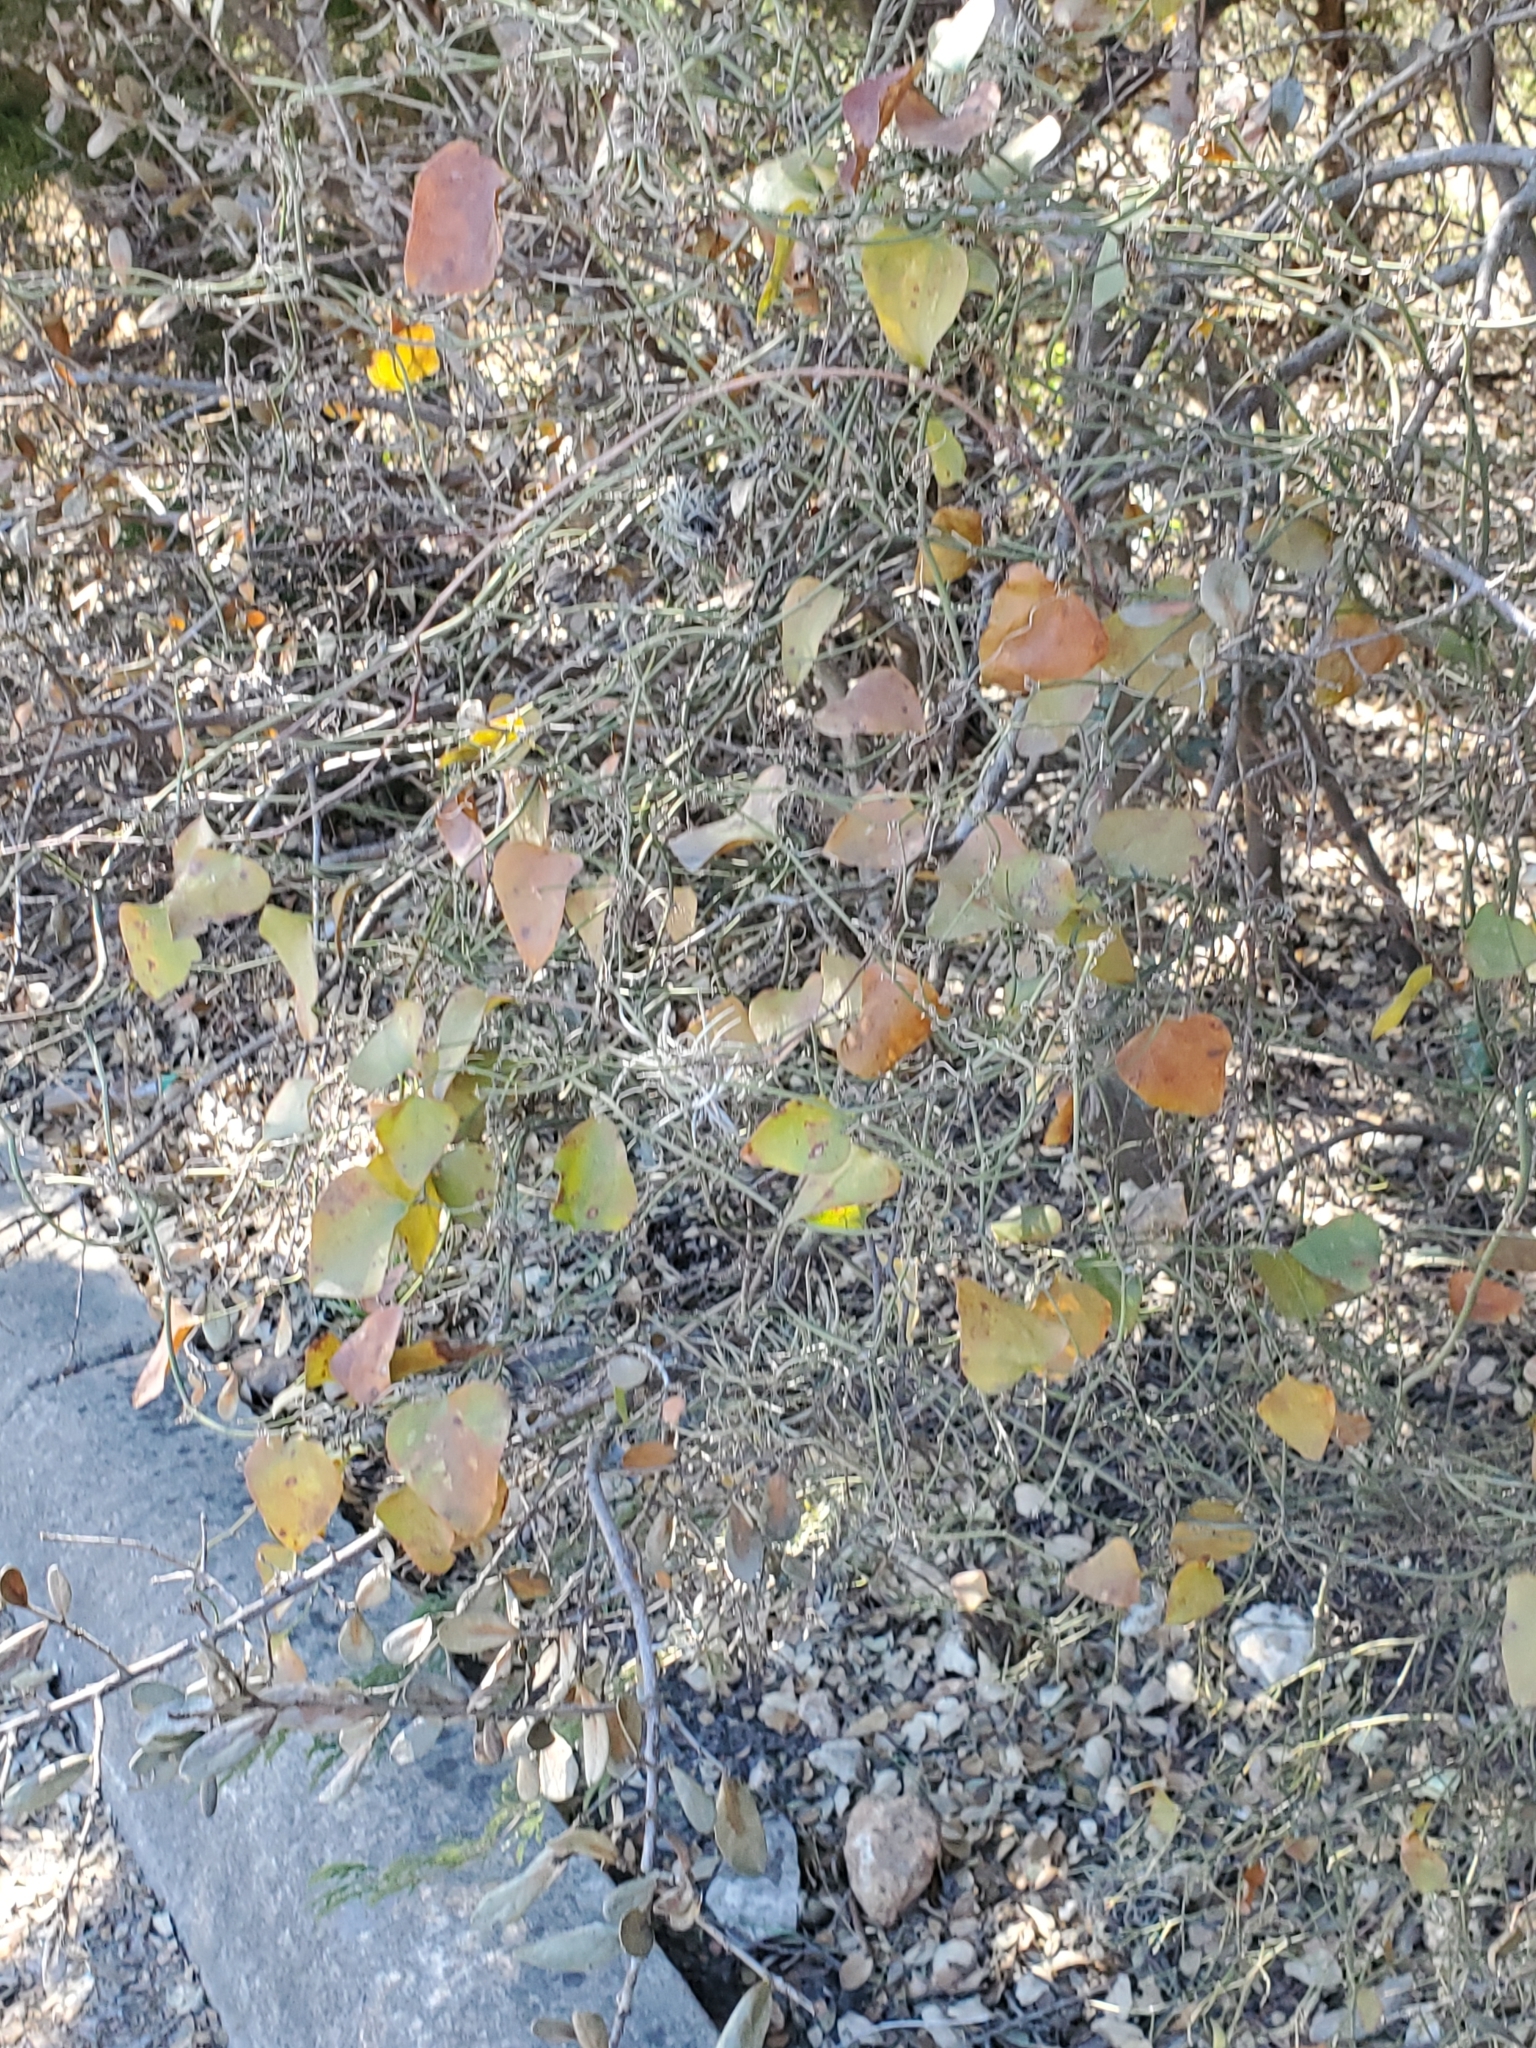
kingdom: Plantae
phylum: Tracheophyta
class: Liliopsida
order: Liliales
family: Smilacaceae
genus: Smilax
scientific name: Smilax bona-nox
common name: Catbrier
